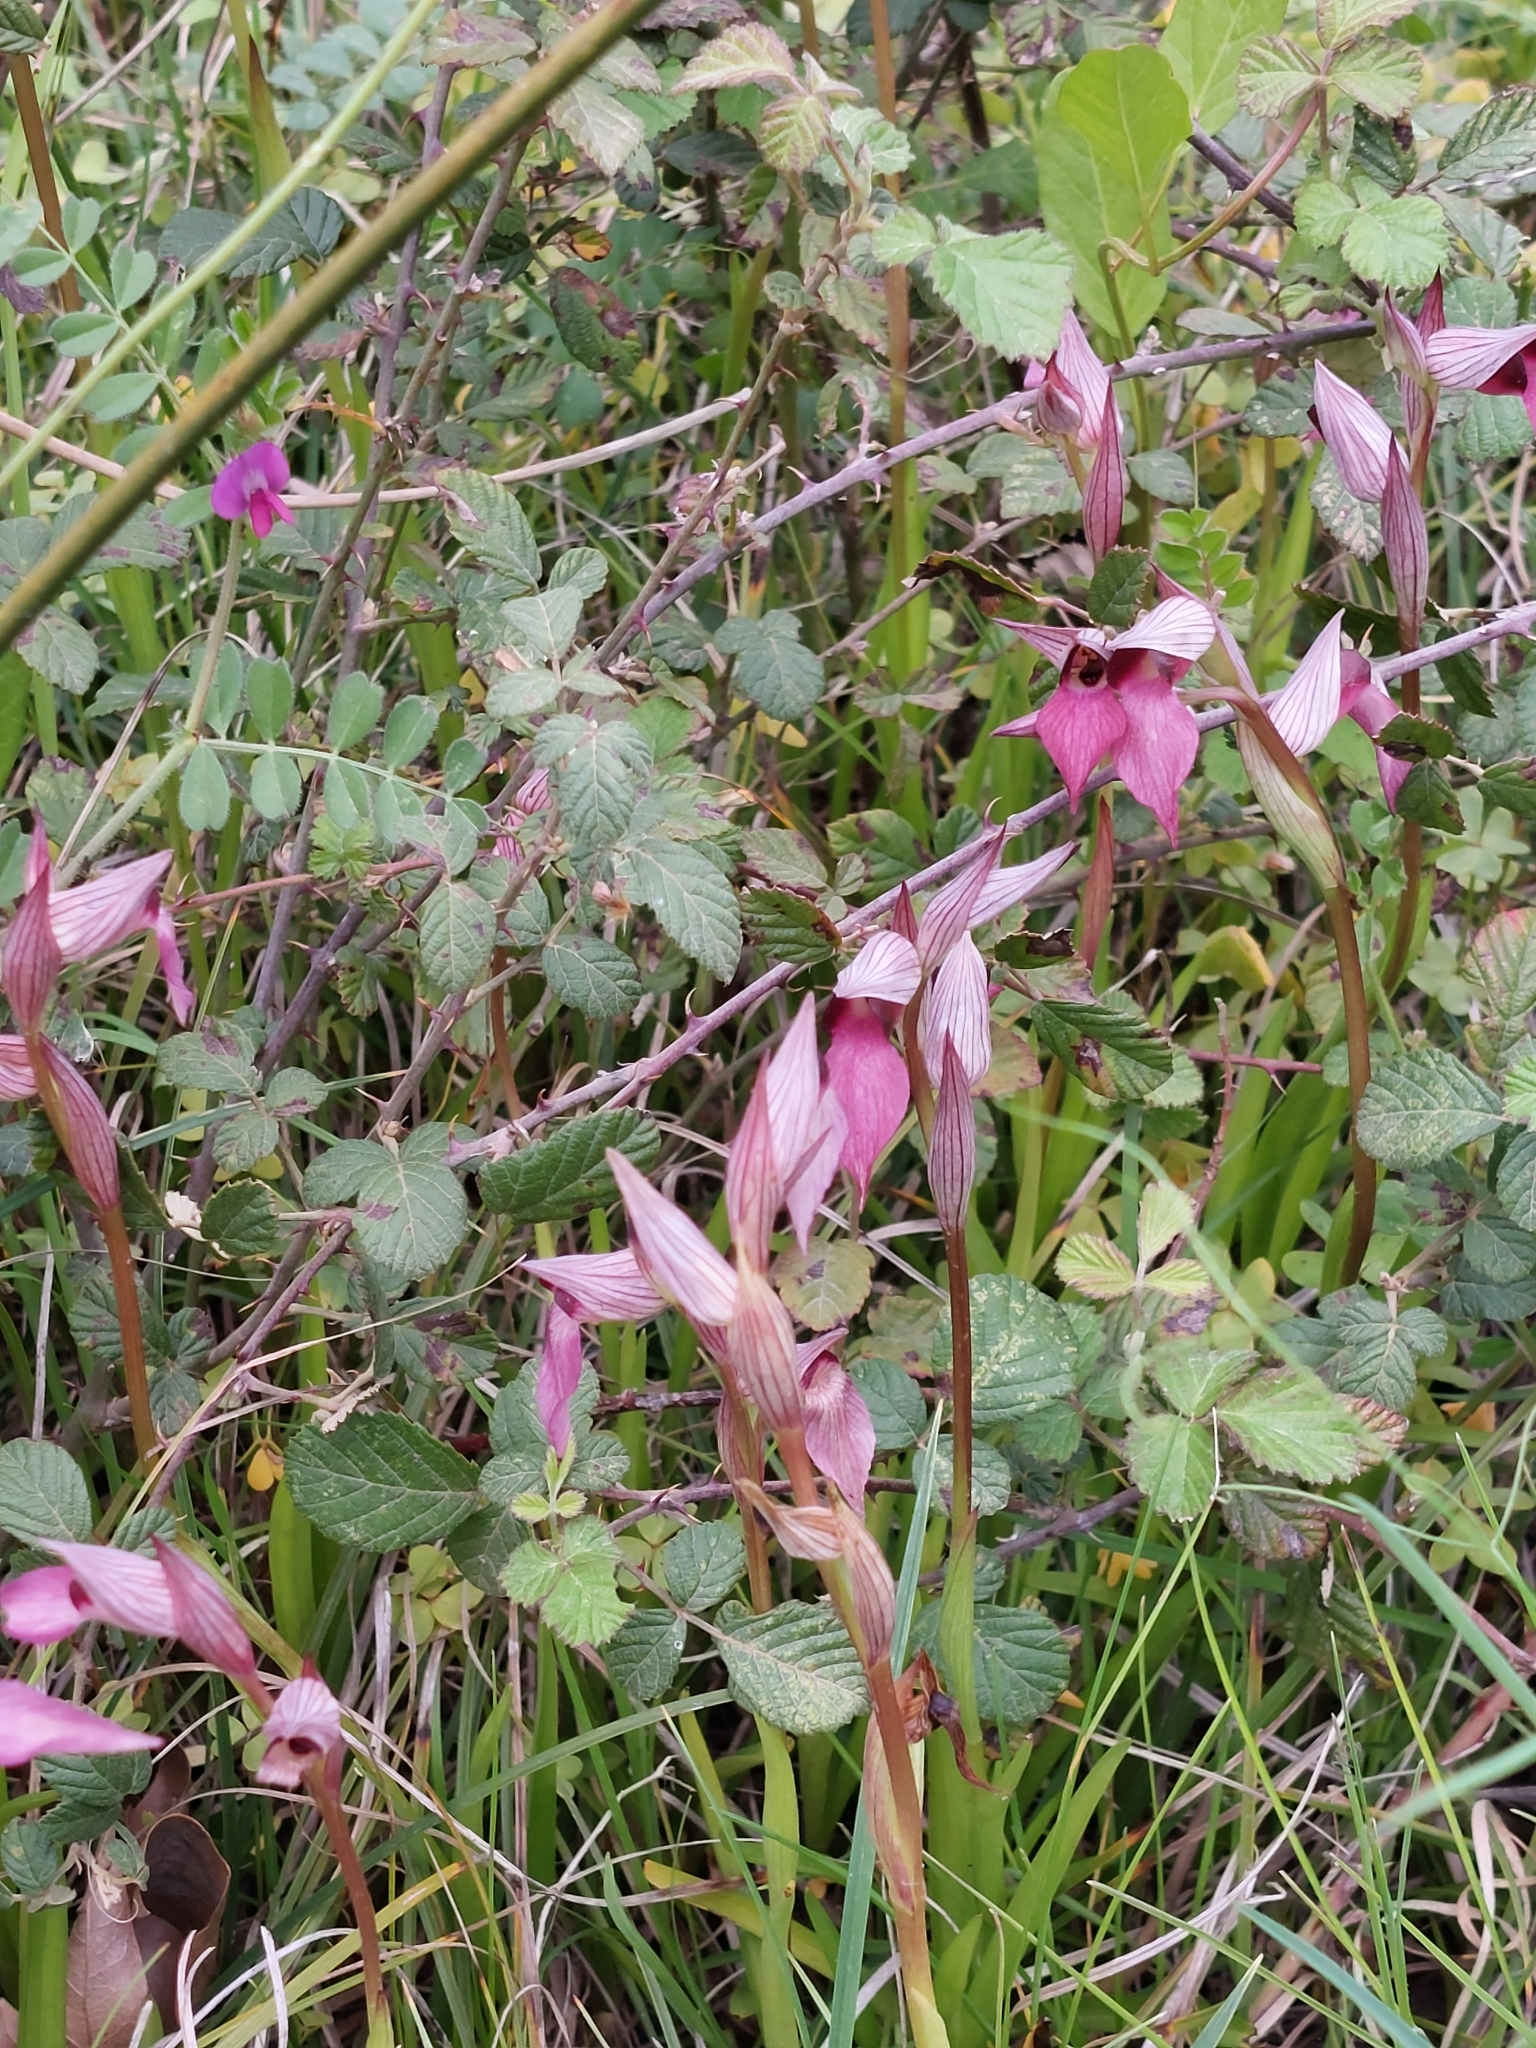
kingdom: Plantae
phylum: Tracheophyta
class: Liliopsida
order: Asparagales
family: Orchidaceae
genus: Serapias
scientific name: Serapias lingua
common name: Tongue-orchid
